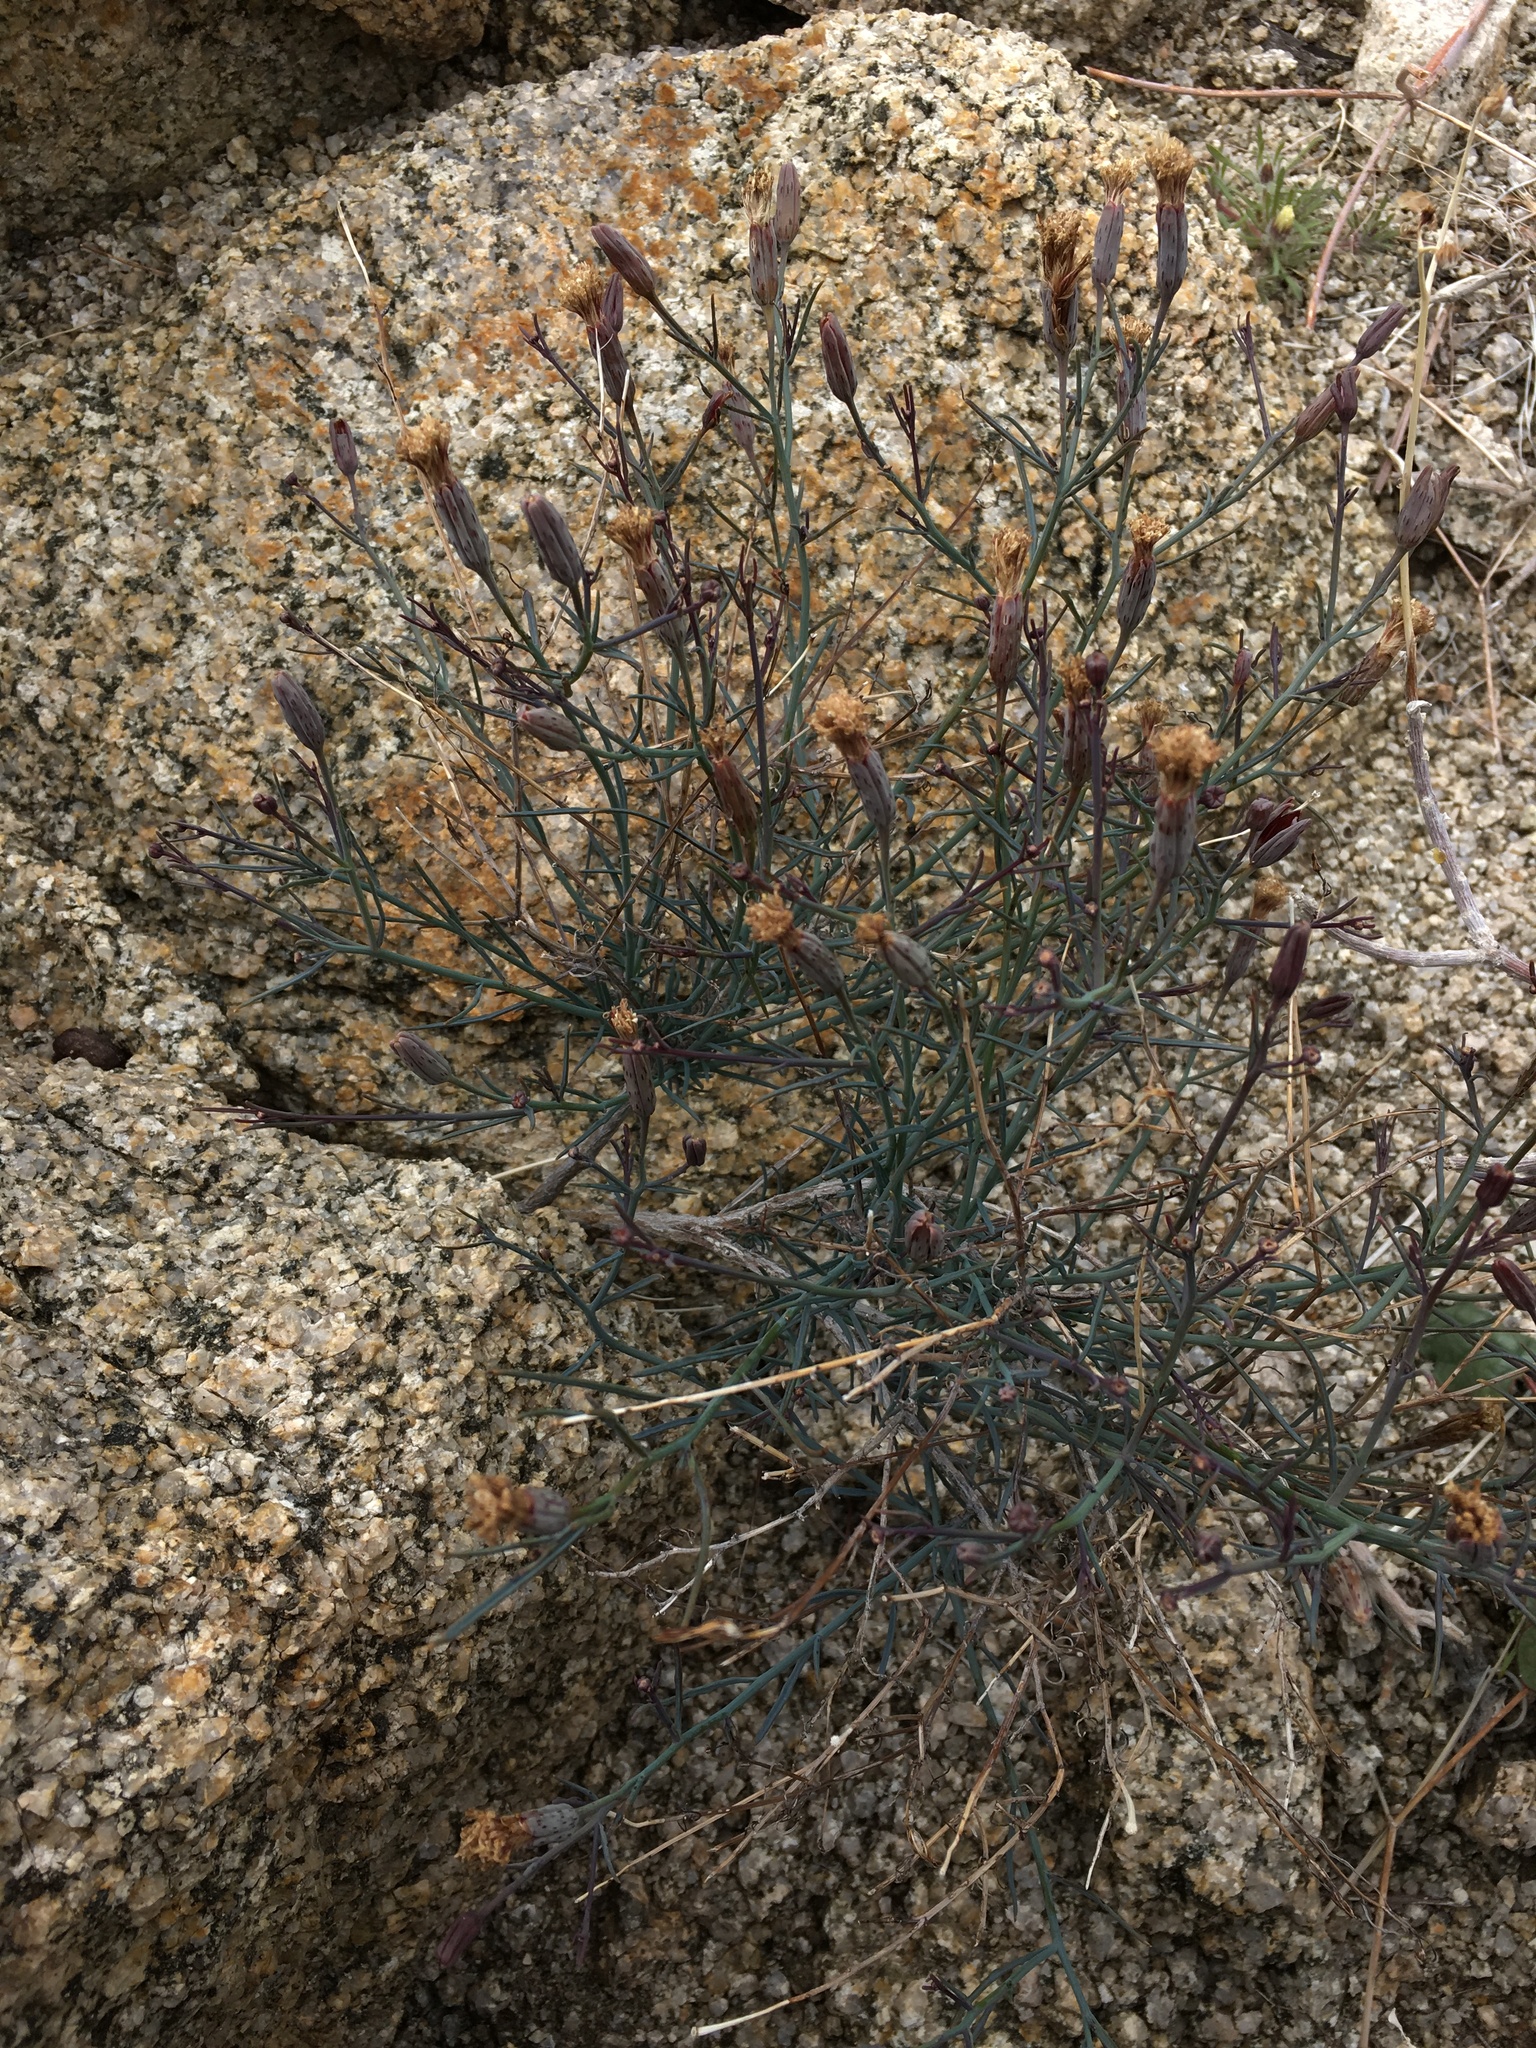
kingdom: Plantae
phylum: Tracheophyta
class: Magnoliopsida
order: Asterales
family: Asteraceae
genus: Porophyllum
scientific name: Porophyllum gracile
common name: Odora
